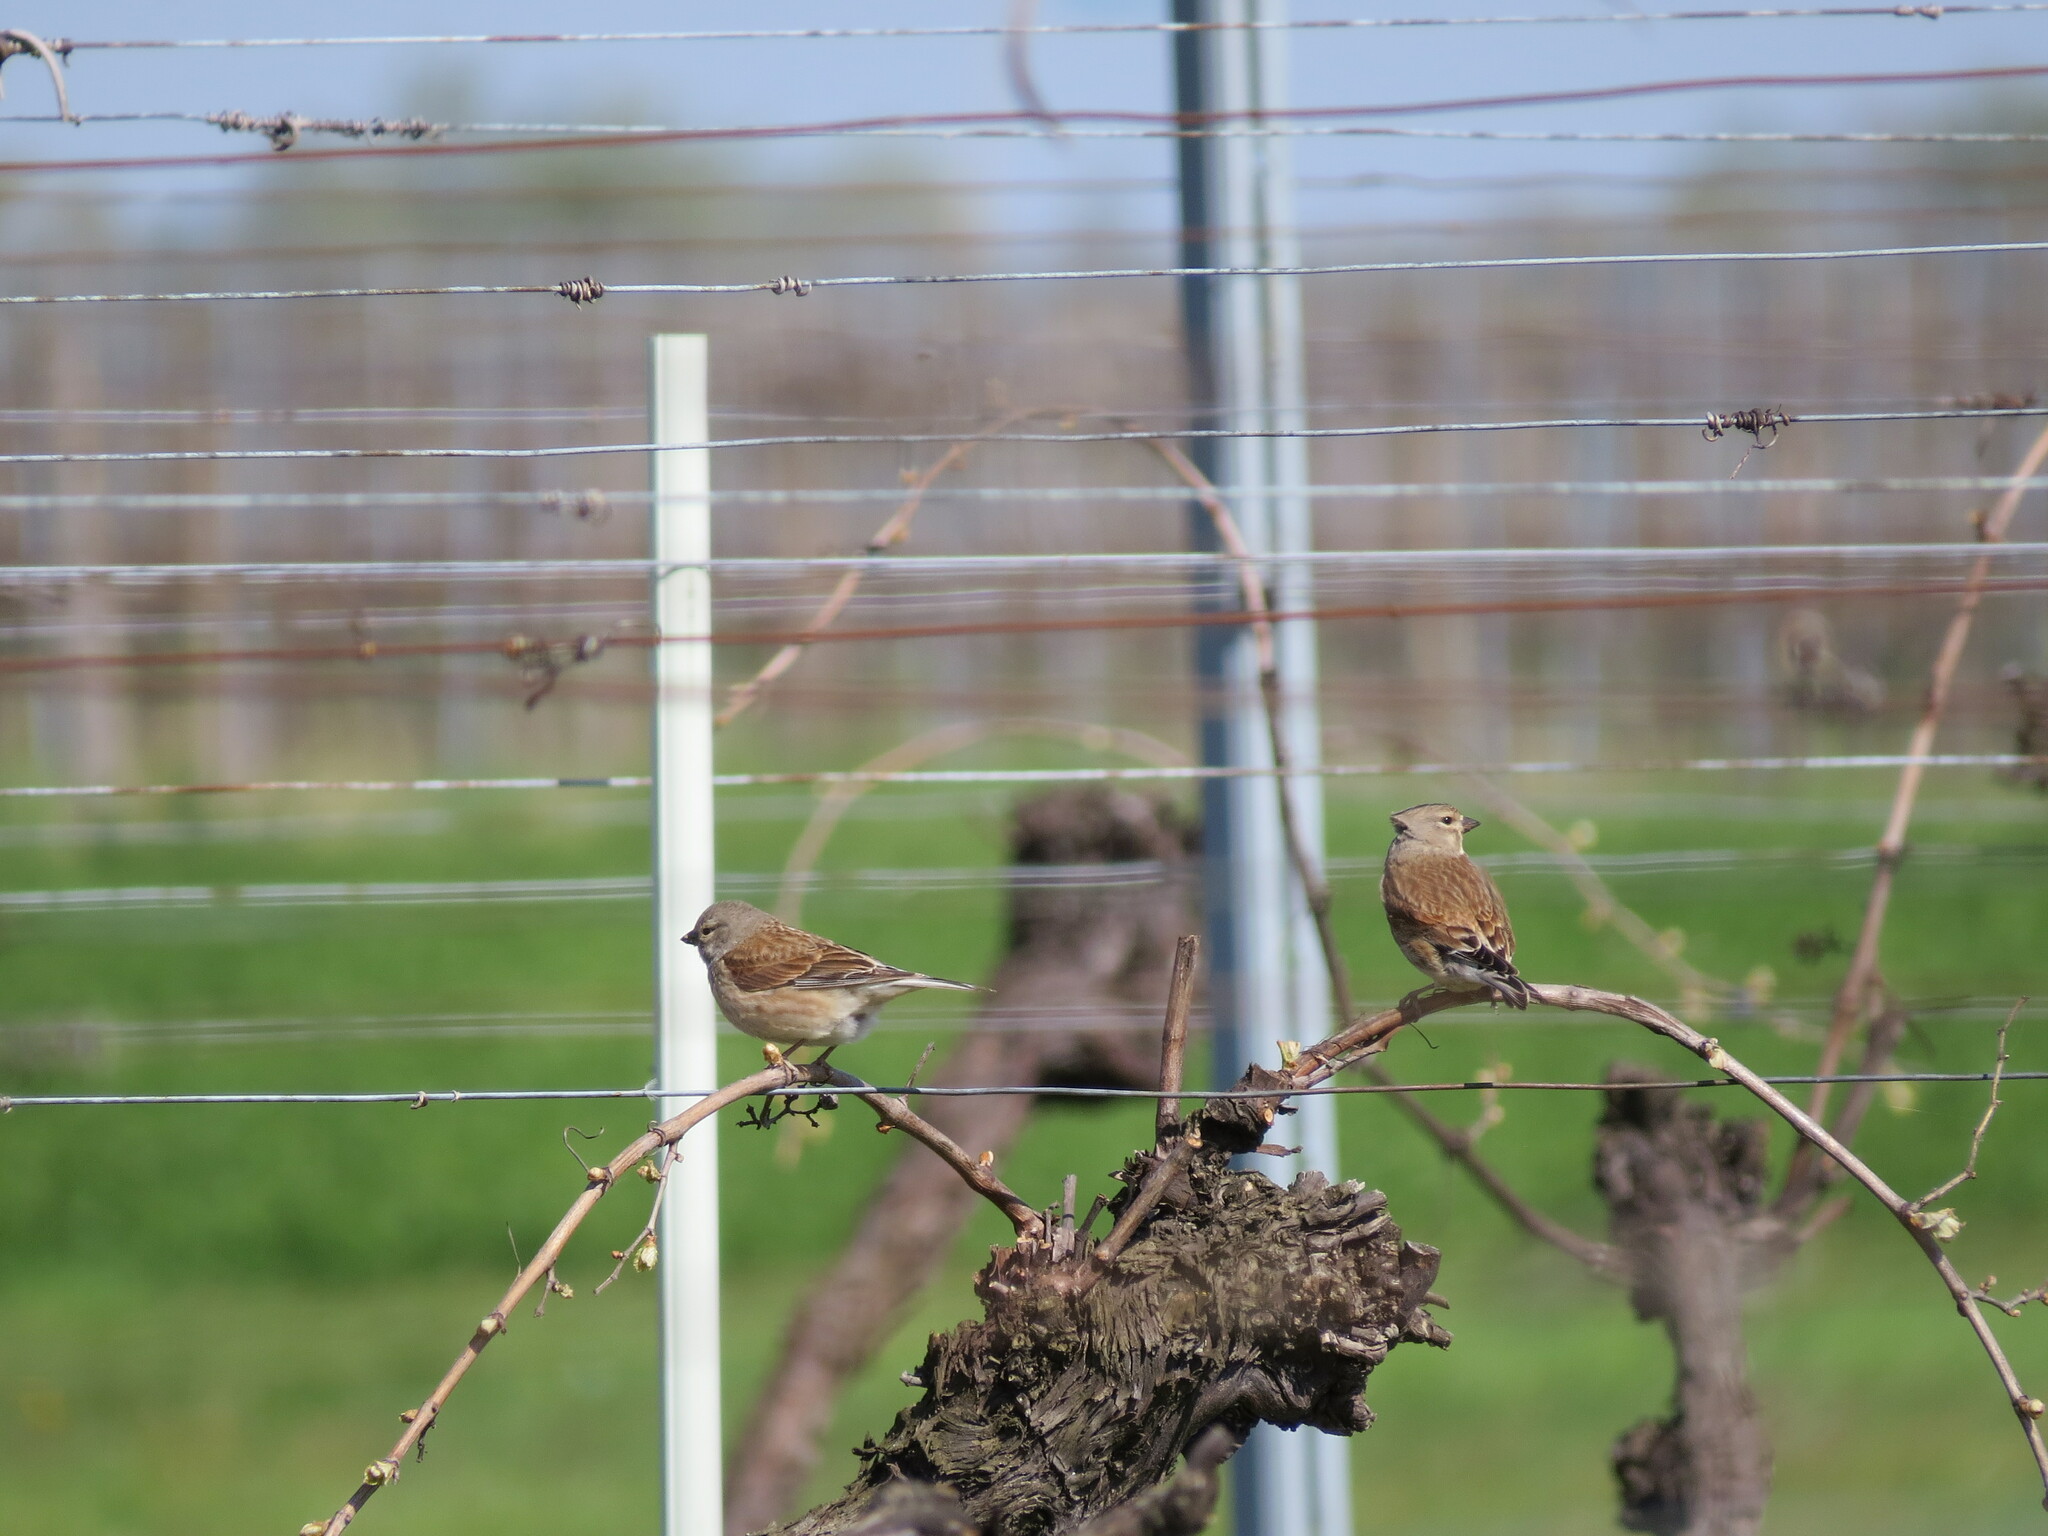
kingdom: Animalia
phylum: Chordata
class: Aves
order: Passeriformes
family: Fringillidae
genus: Linaria
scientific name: Linaria cannabina
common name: Common linnet
